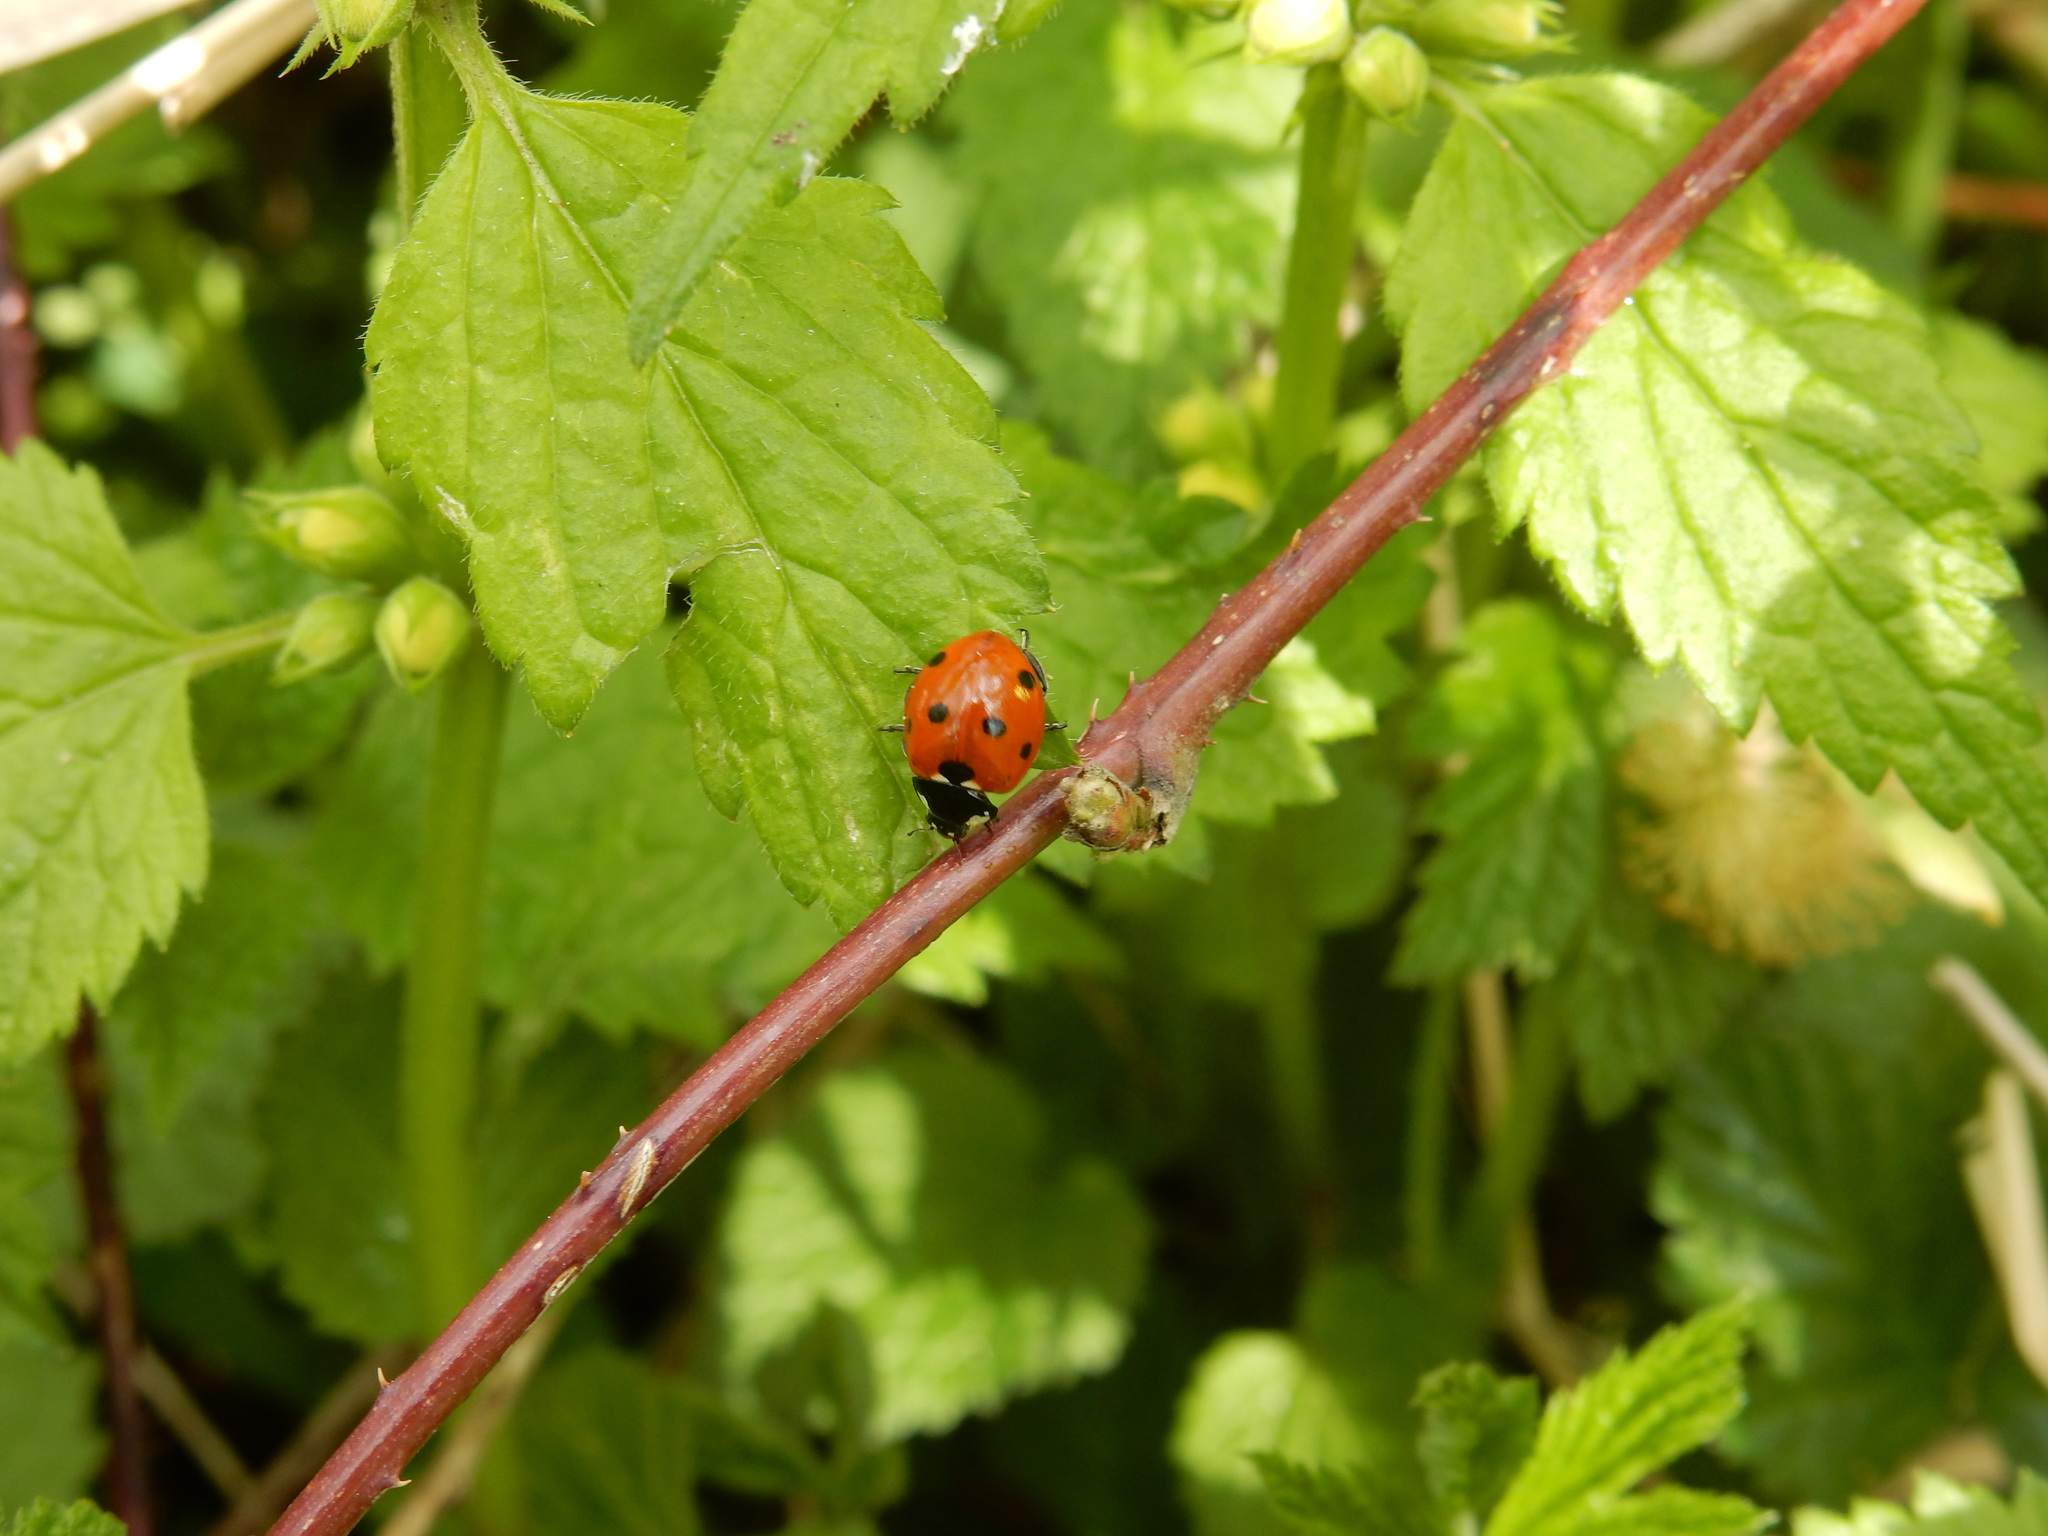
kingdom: Animalia
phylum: Arthropoda
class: Insecta
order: Coleoptera
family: Coccinellidae
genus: Coccinella
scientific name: Coccinella septempunctata
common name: Sevenspotted lady beetle
